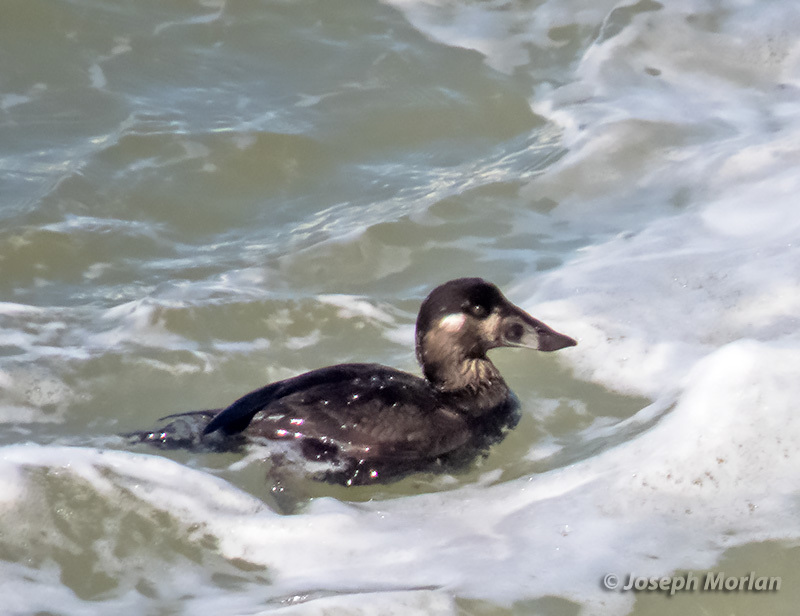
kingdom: Animalia
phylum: Chordata
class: Aves
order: Anseriformes
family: Anatidae
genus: Melanitta
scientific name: Melanitta perspicillata
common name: Surf scoter
